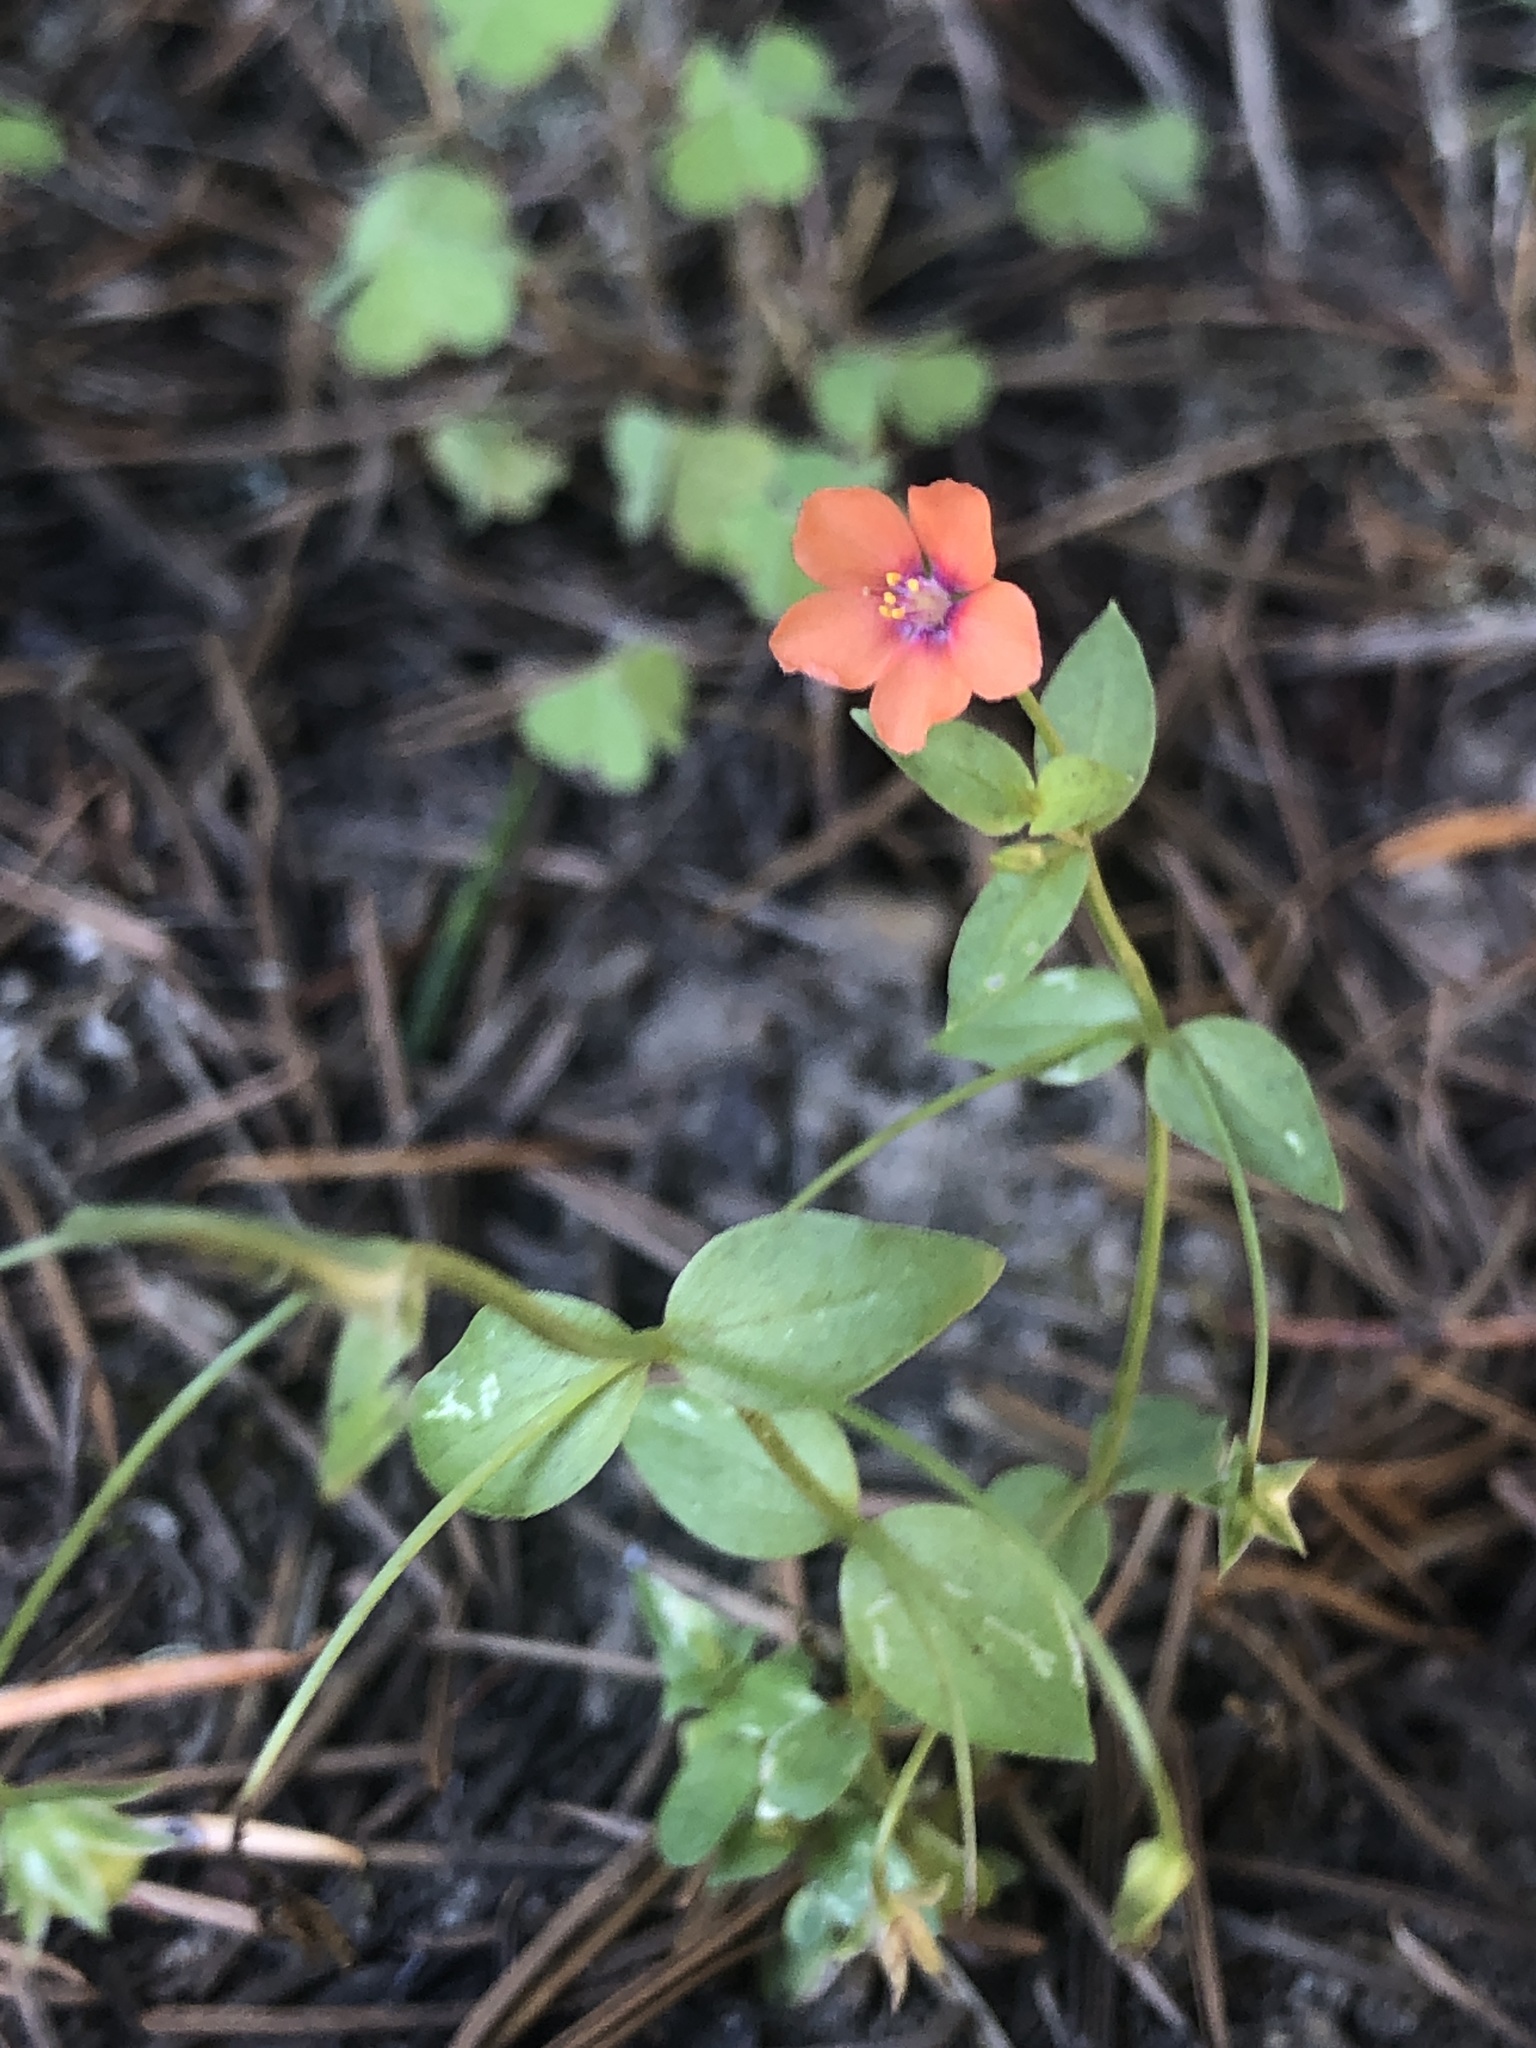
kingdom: Plantae
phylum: Tracheophyta
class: Magnoliopsida
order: Ericales
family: Primulaceae
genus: Lysimachia
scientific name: Lysimachia arvensis
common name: Scarlet pimpernel
